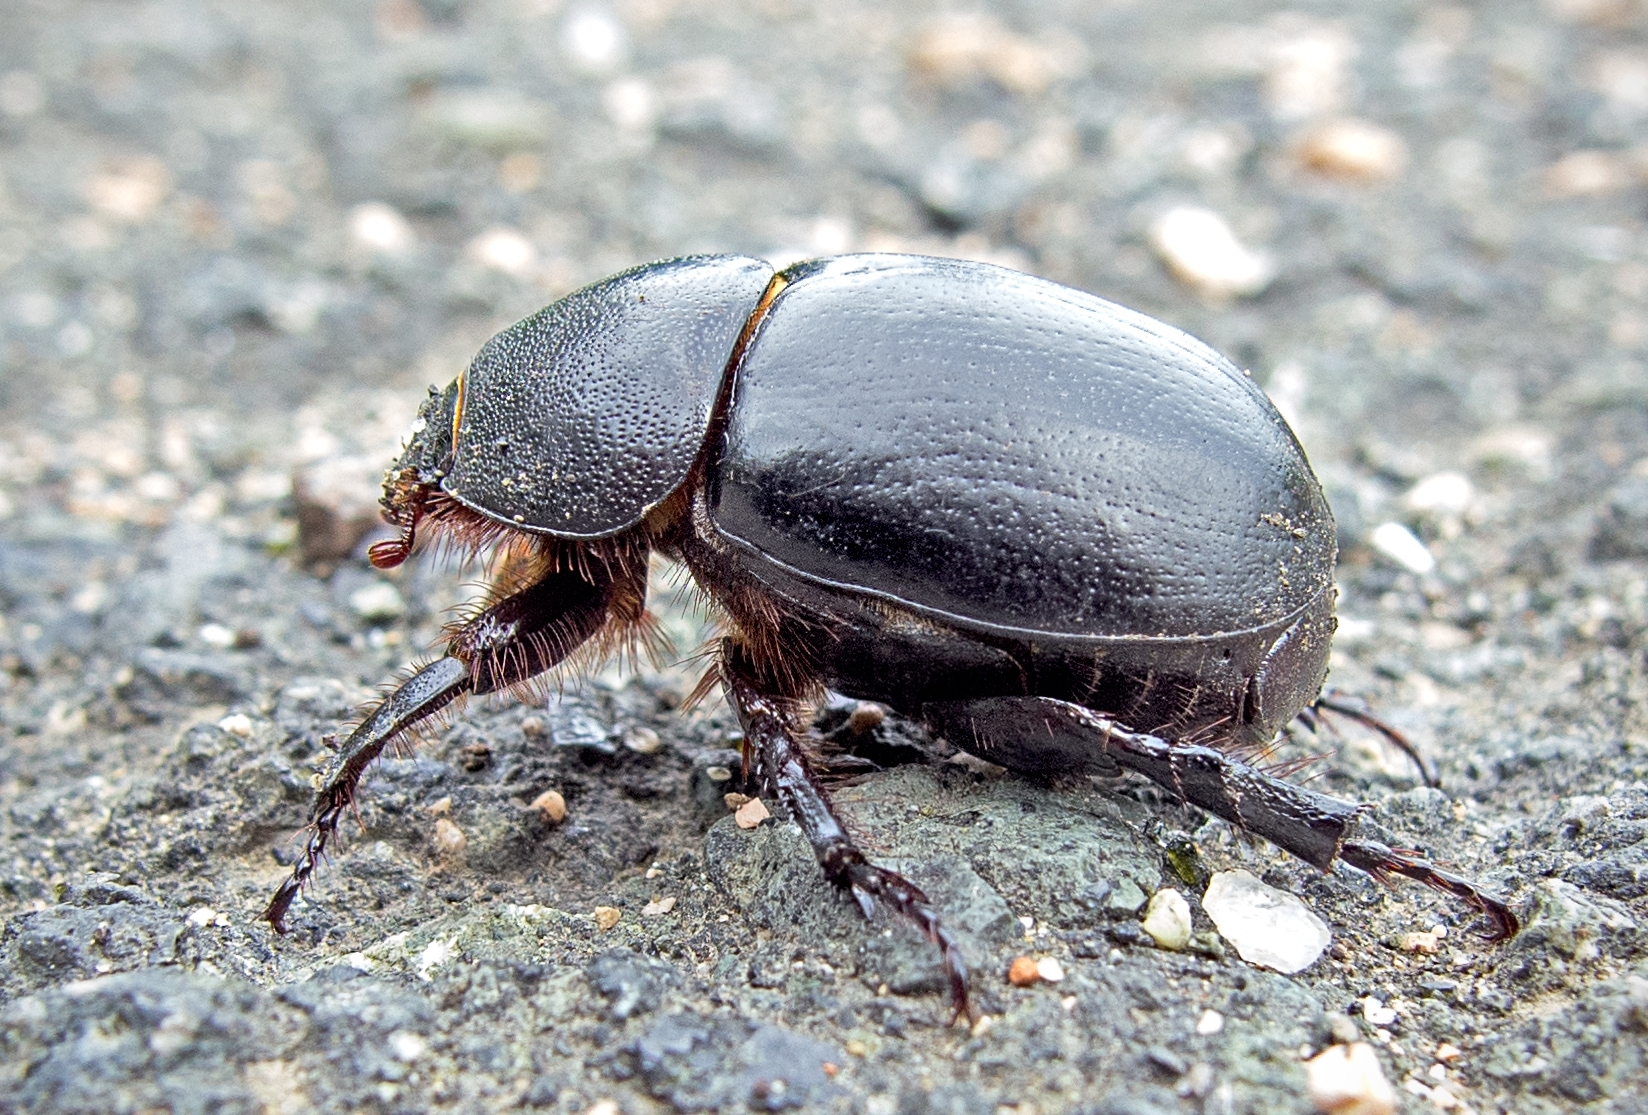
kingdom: Animalia
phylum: Arthropoda
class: Insecta
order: Coleoptera
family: Scarabaeidae
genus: Pentodon
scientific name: Pentodon idiota
